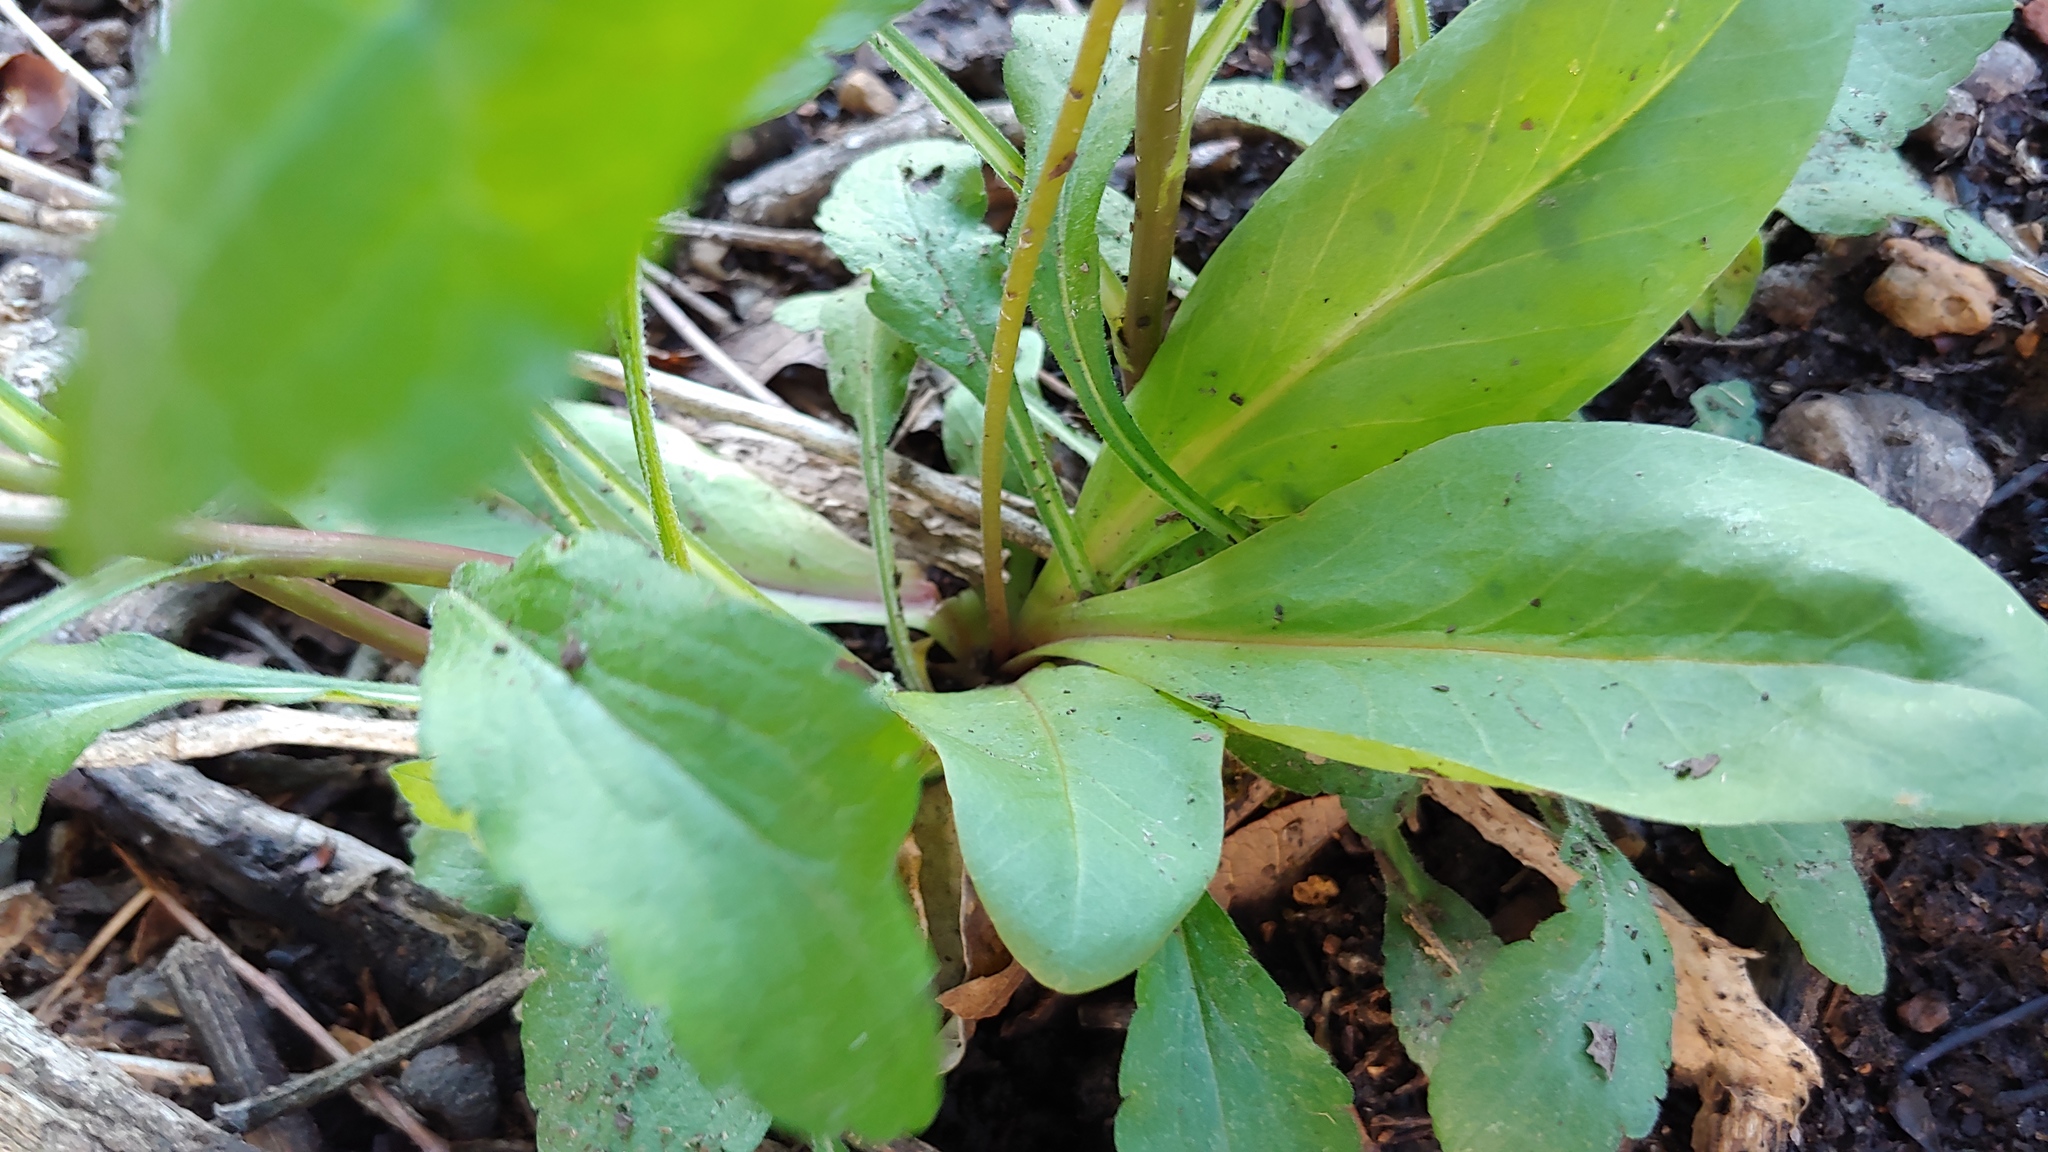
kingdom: Plantae
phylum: Tracheophyta
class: Magnoliopsida
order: Ericales
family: Primulaceae
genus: Dodecatheon
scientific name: Dodecatheon meadia
